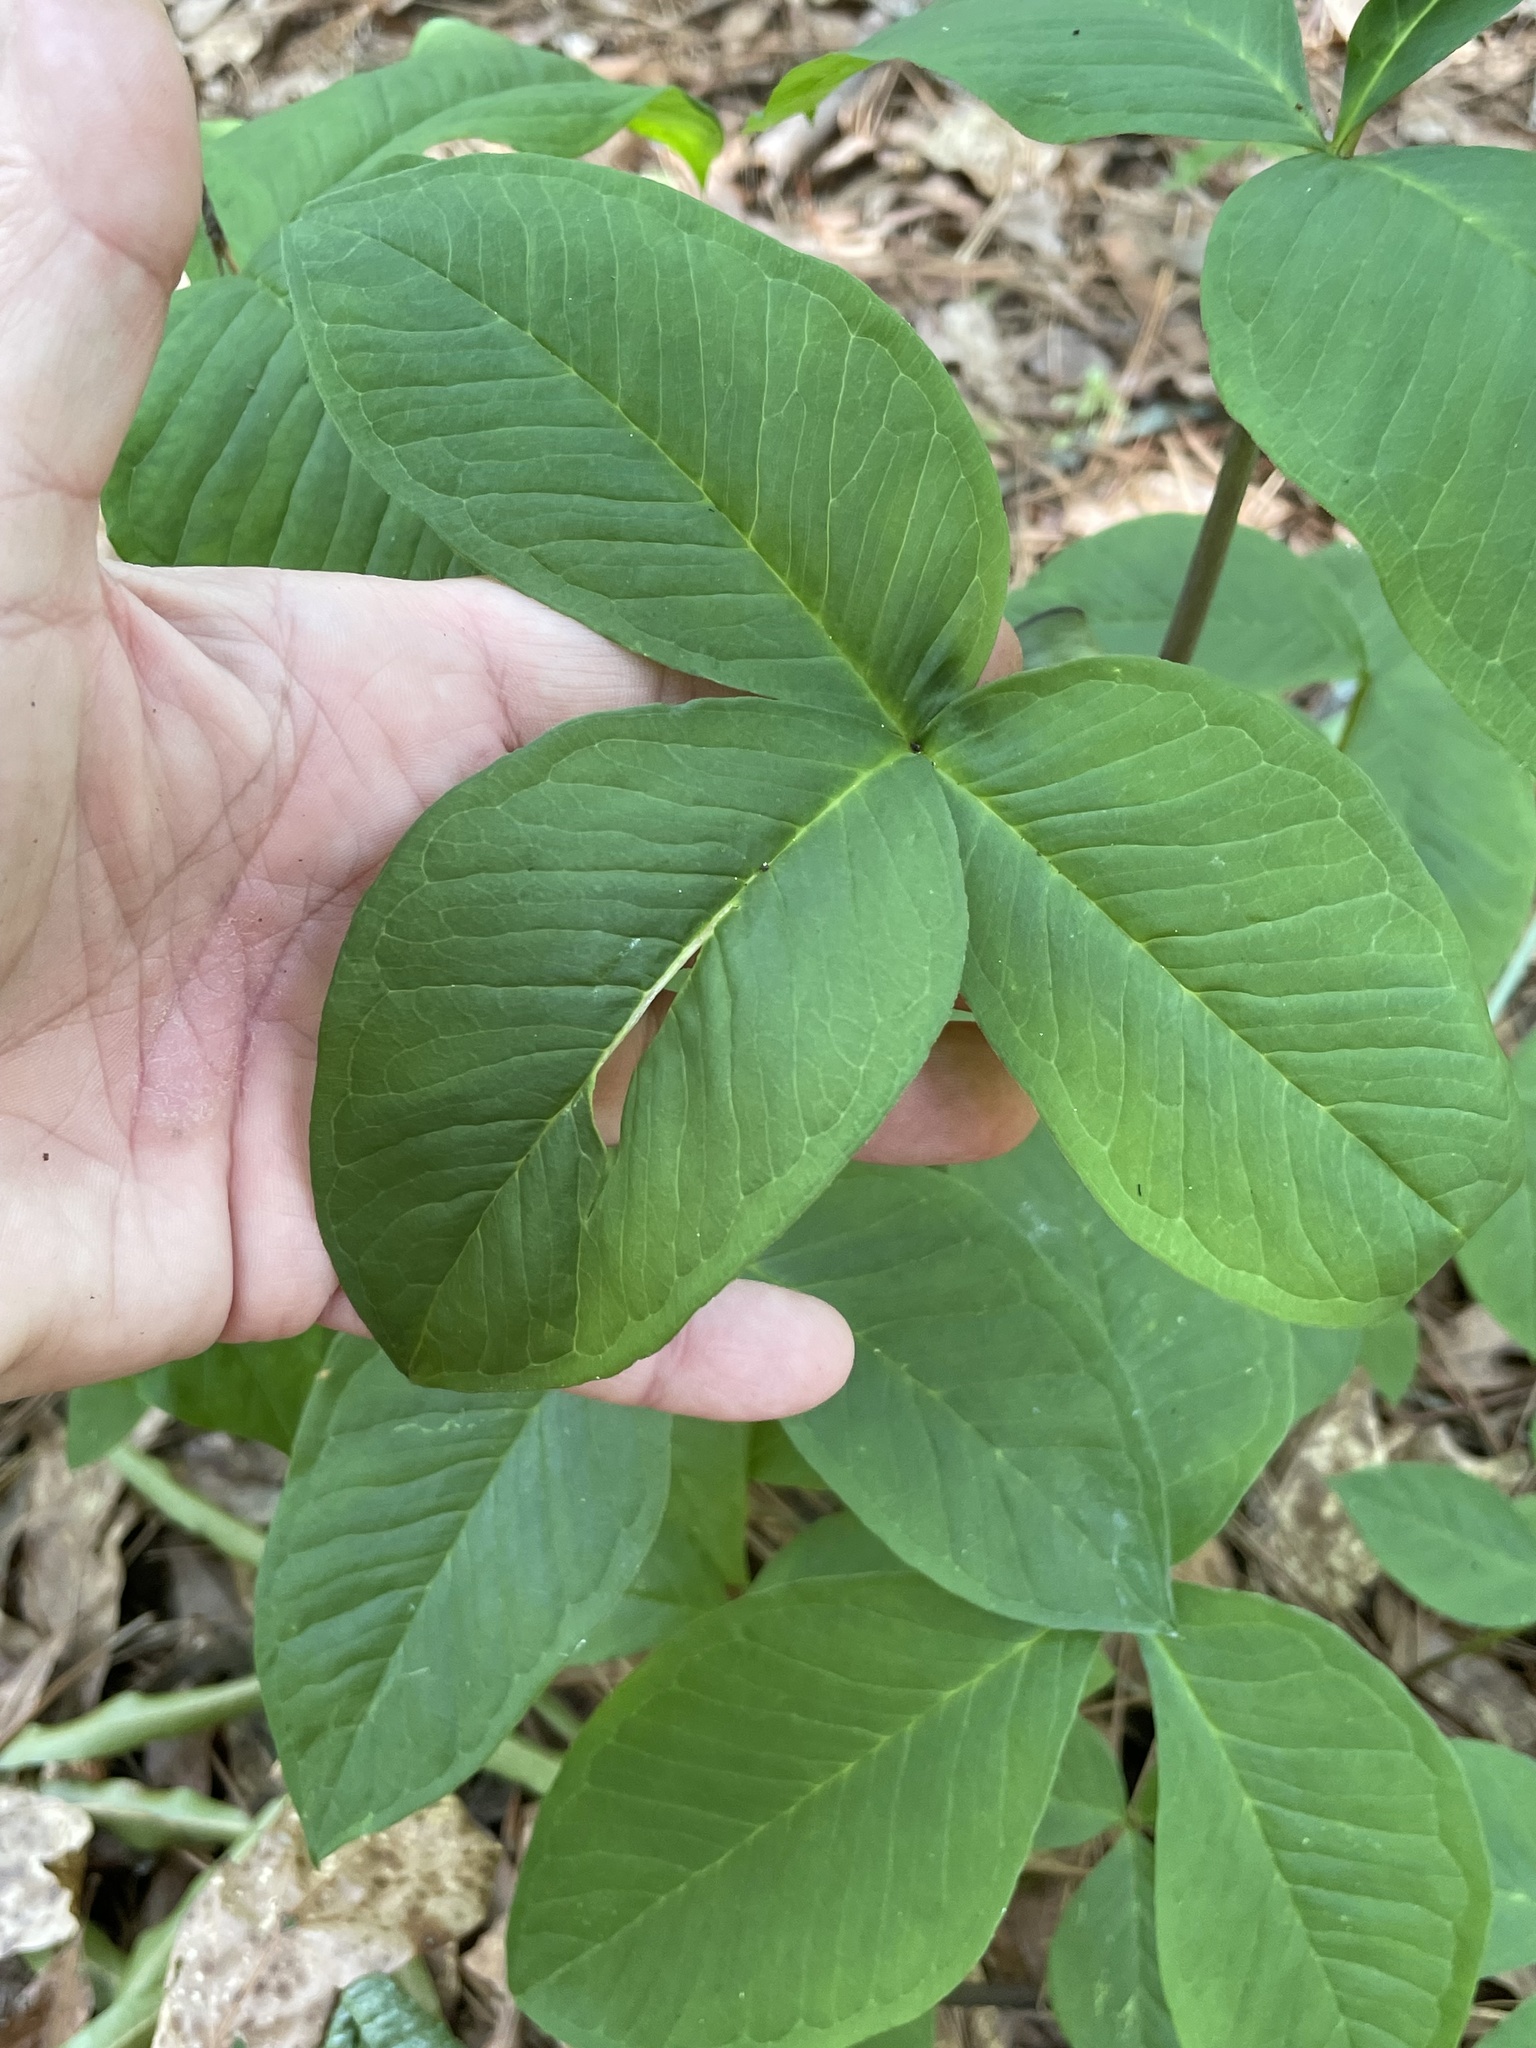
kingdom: Plantae
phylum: Tracheophyta
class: Liliopsida
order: Alismatales
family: Araceae
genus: Arisaema
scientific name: Arisaema triphyllum
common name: Jack-in-the-pulpit
